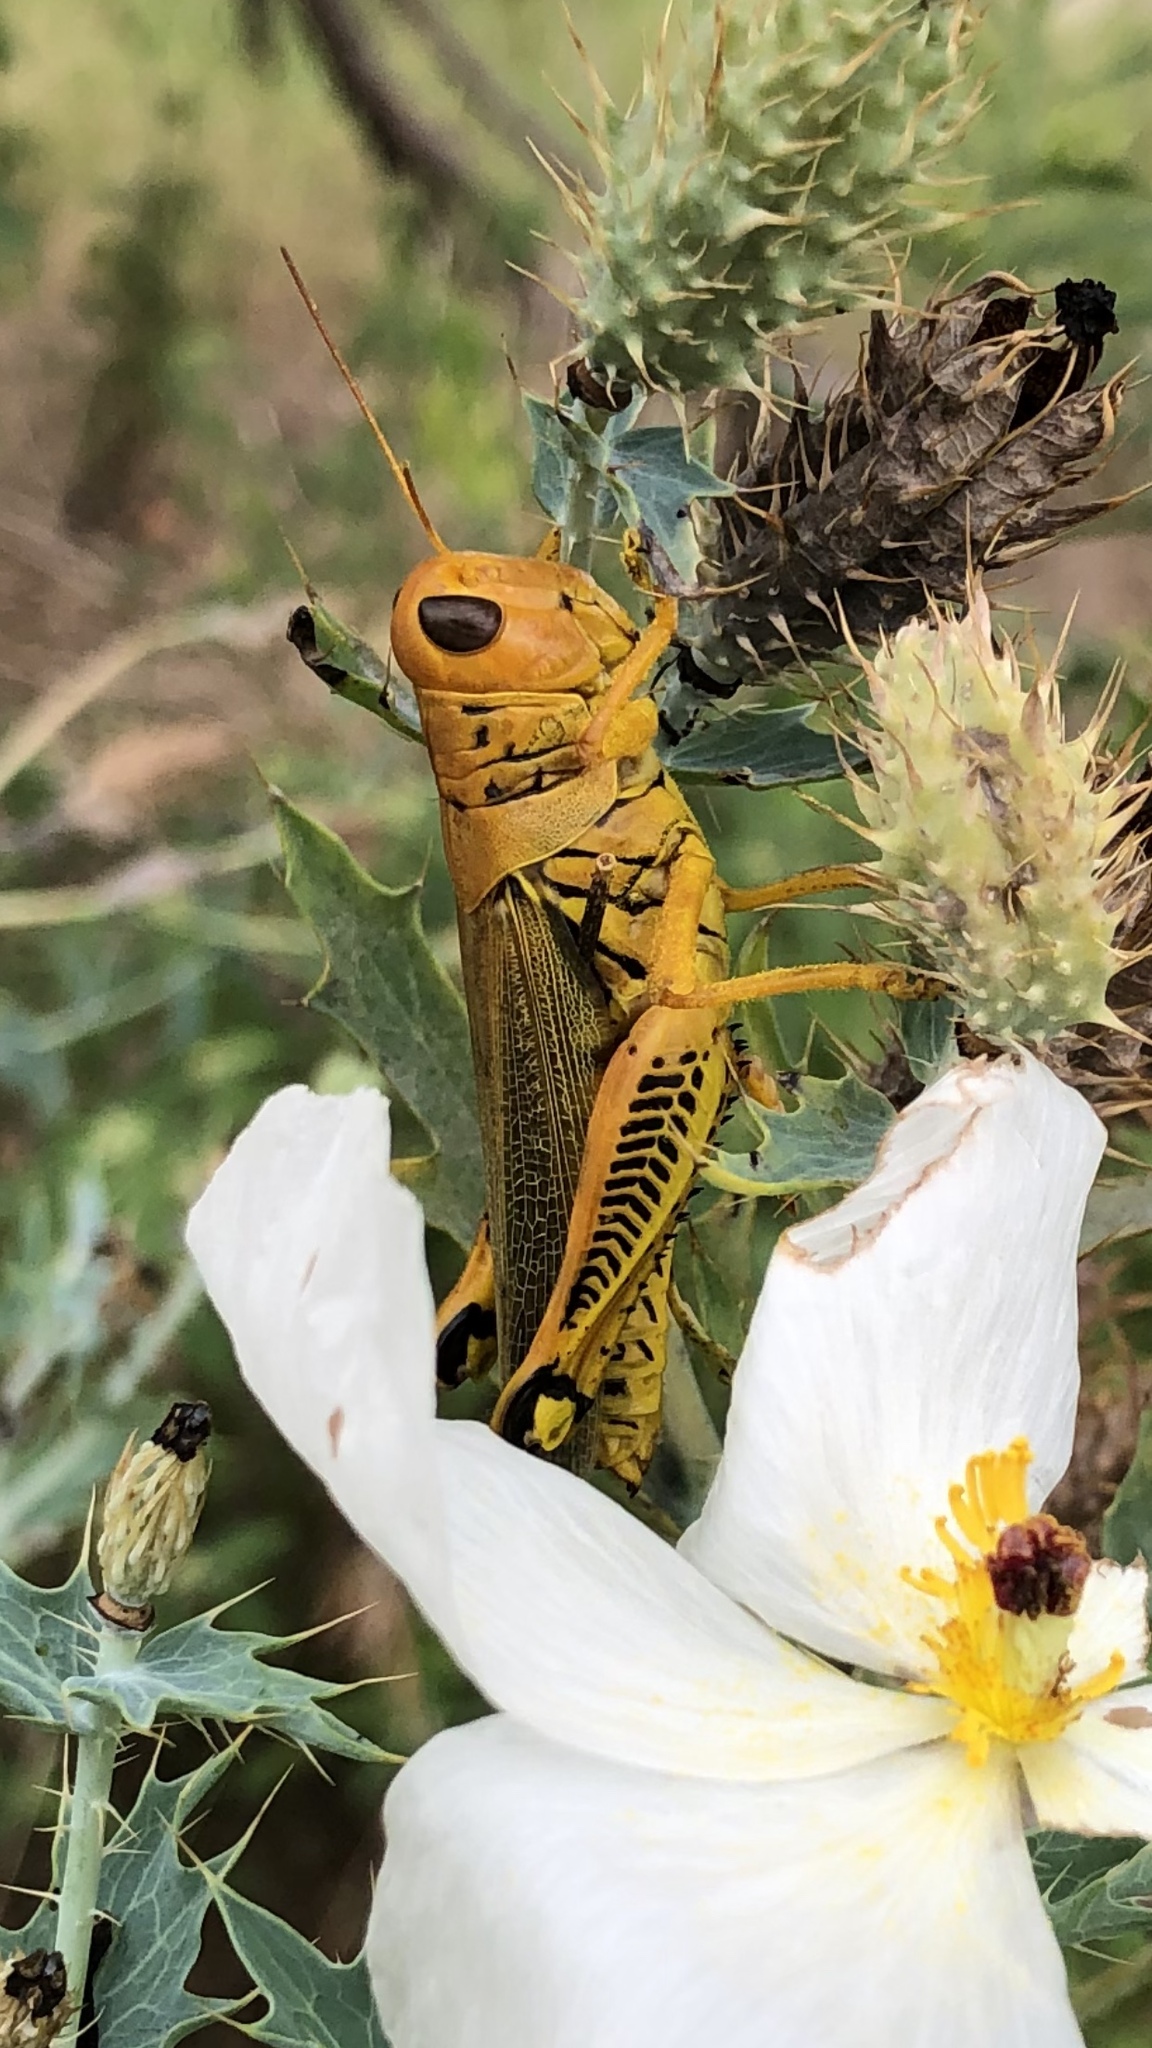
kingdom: Animalia
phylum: Arthropoda
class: Insecta
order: Orthoptera
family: Acrididae
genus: Melanoplus
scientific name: Melanoplus differentialis
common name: Differential grasshopper
